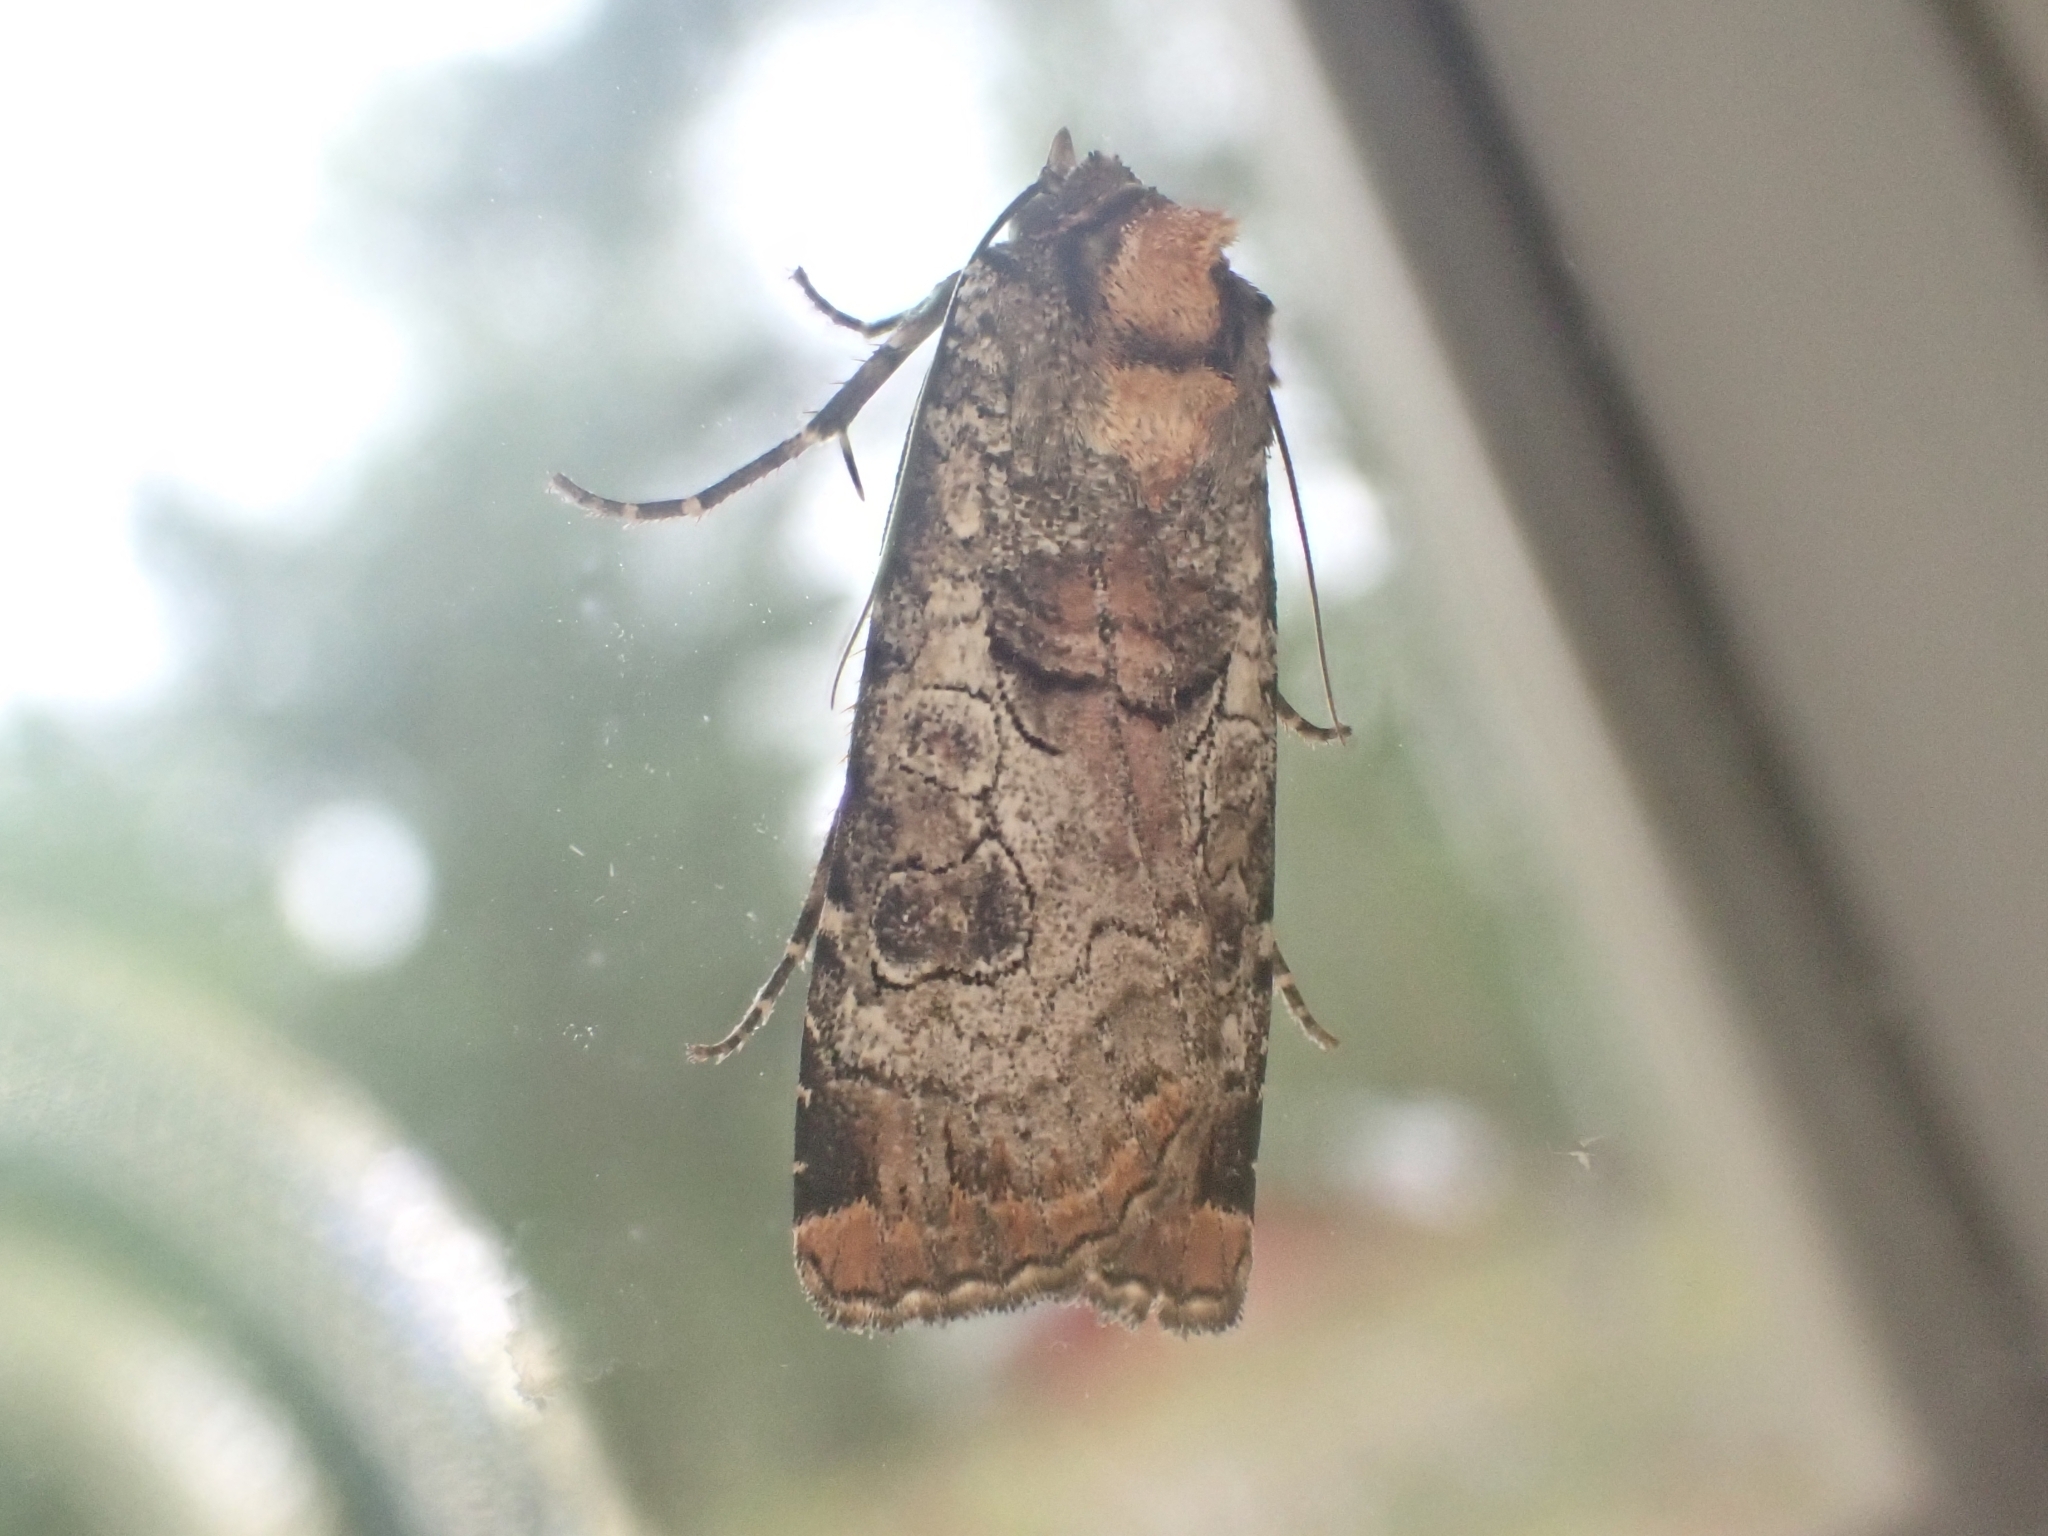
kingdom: Animalia
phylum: Arthropoda
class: Insecta
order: Lepidoptera
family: Noctuidae
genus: Epilecta
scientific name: Epilecta linogrisea
